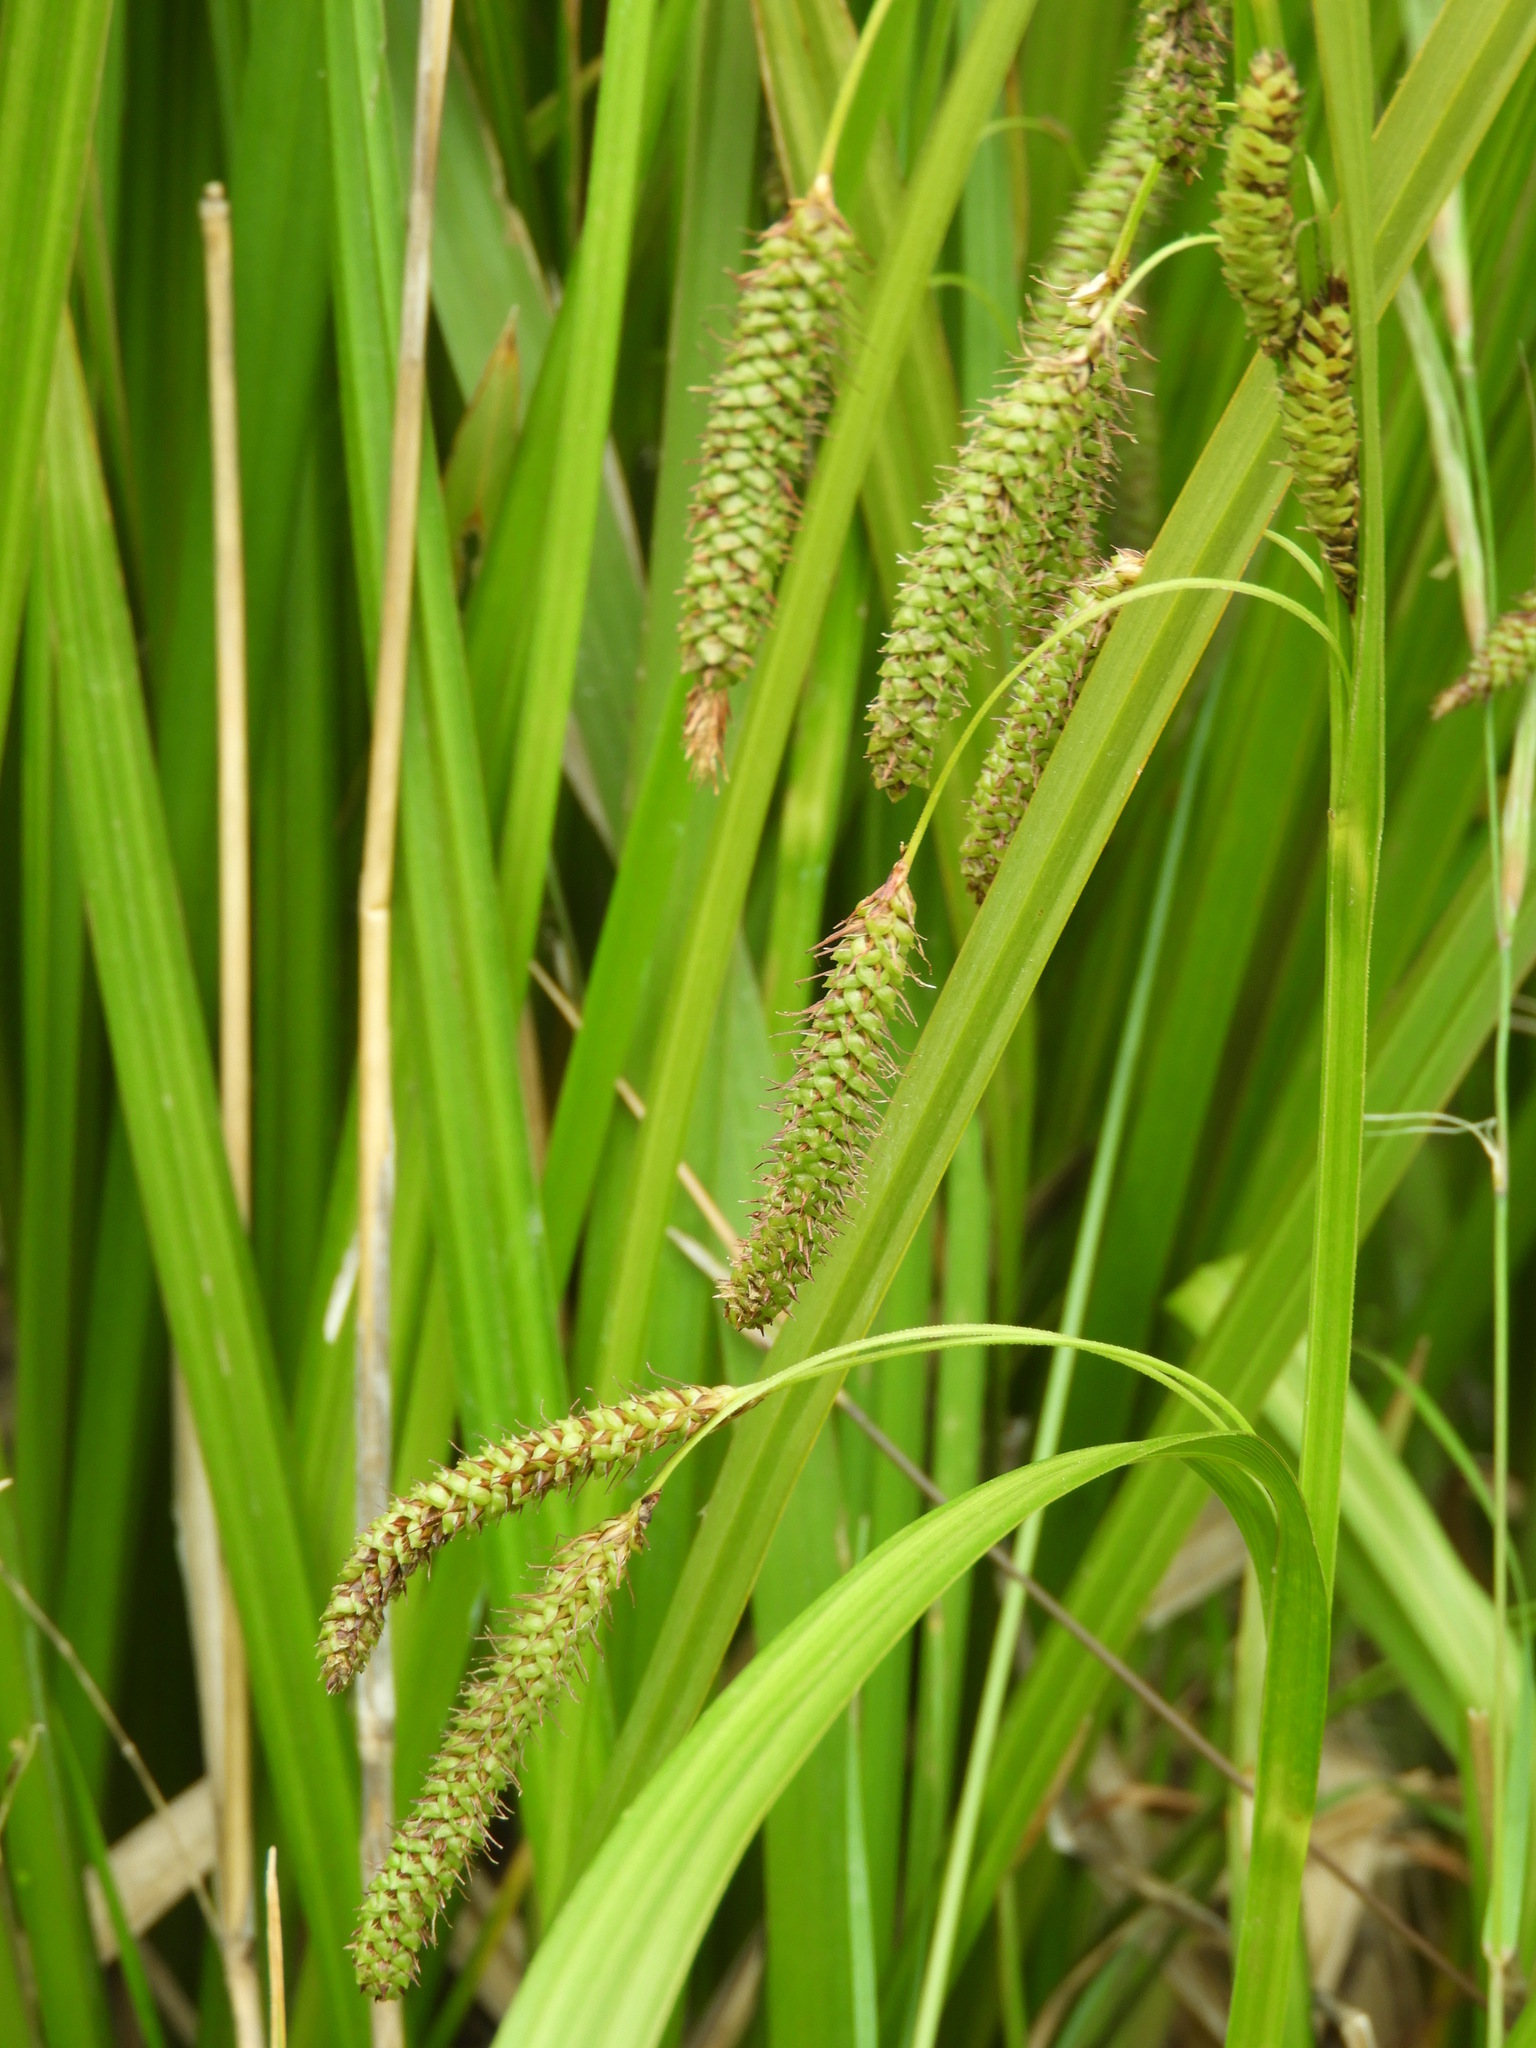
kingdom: Plantae
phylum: Tracheophyta
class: Liliopsida
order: Poales
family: Cyperaceae
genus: Carex
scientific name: Carex coriacea
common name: Rautahi
